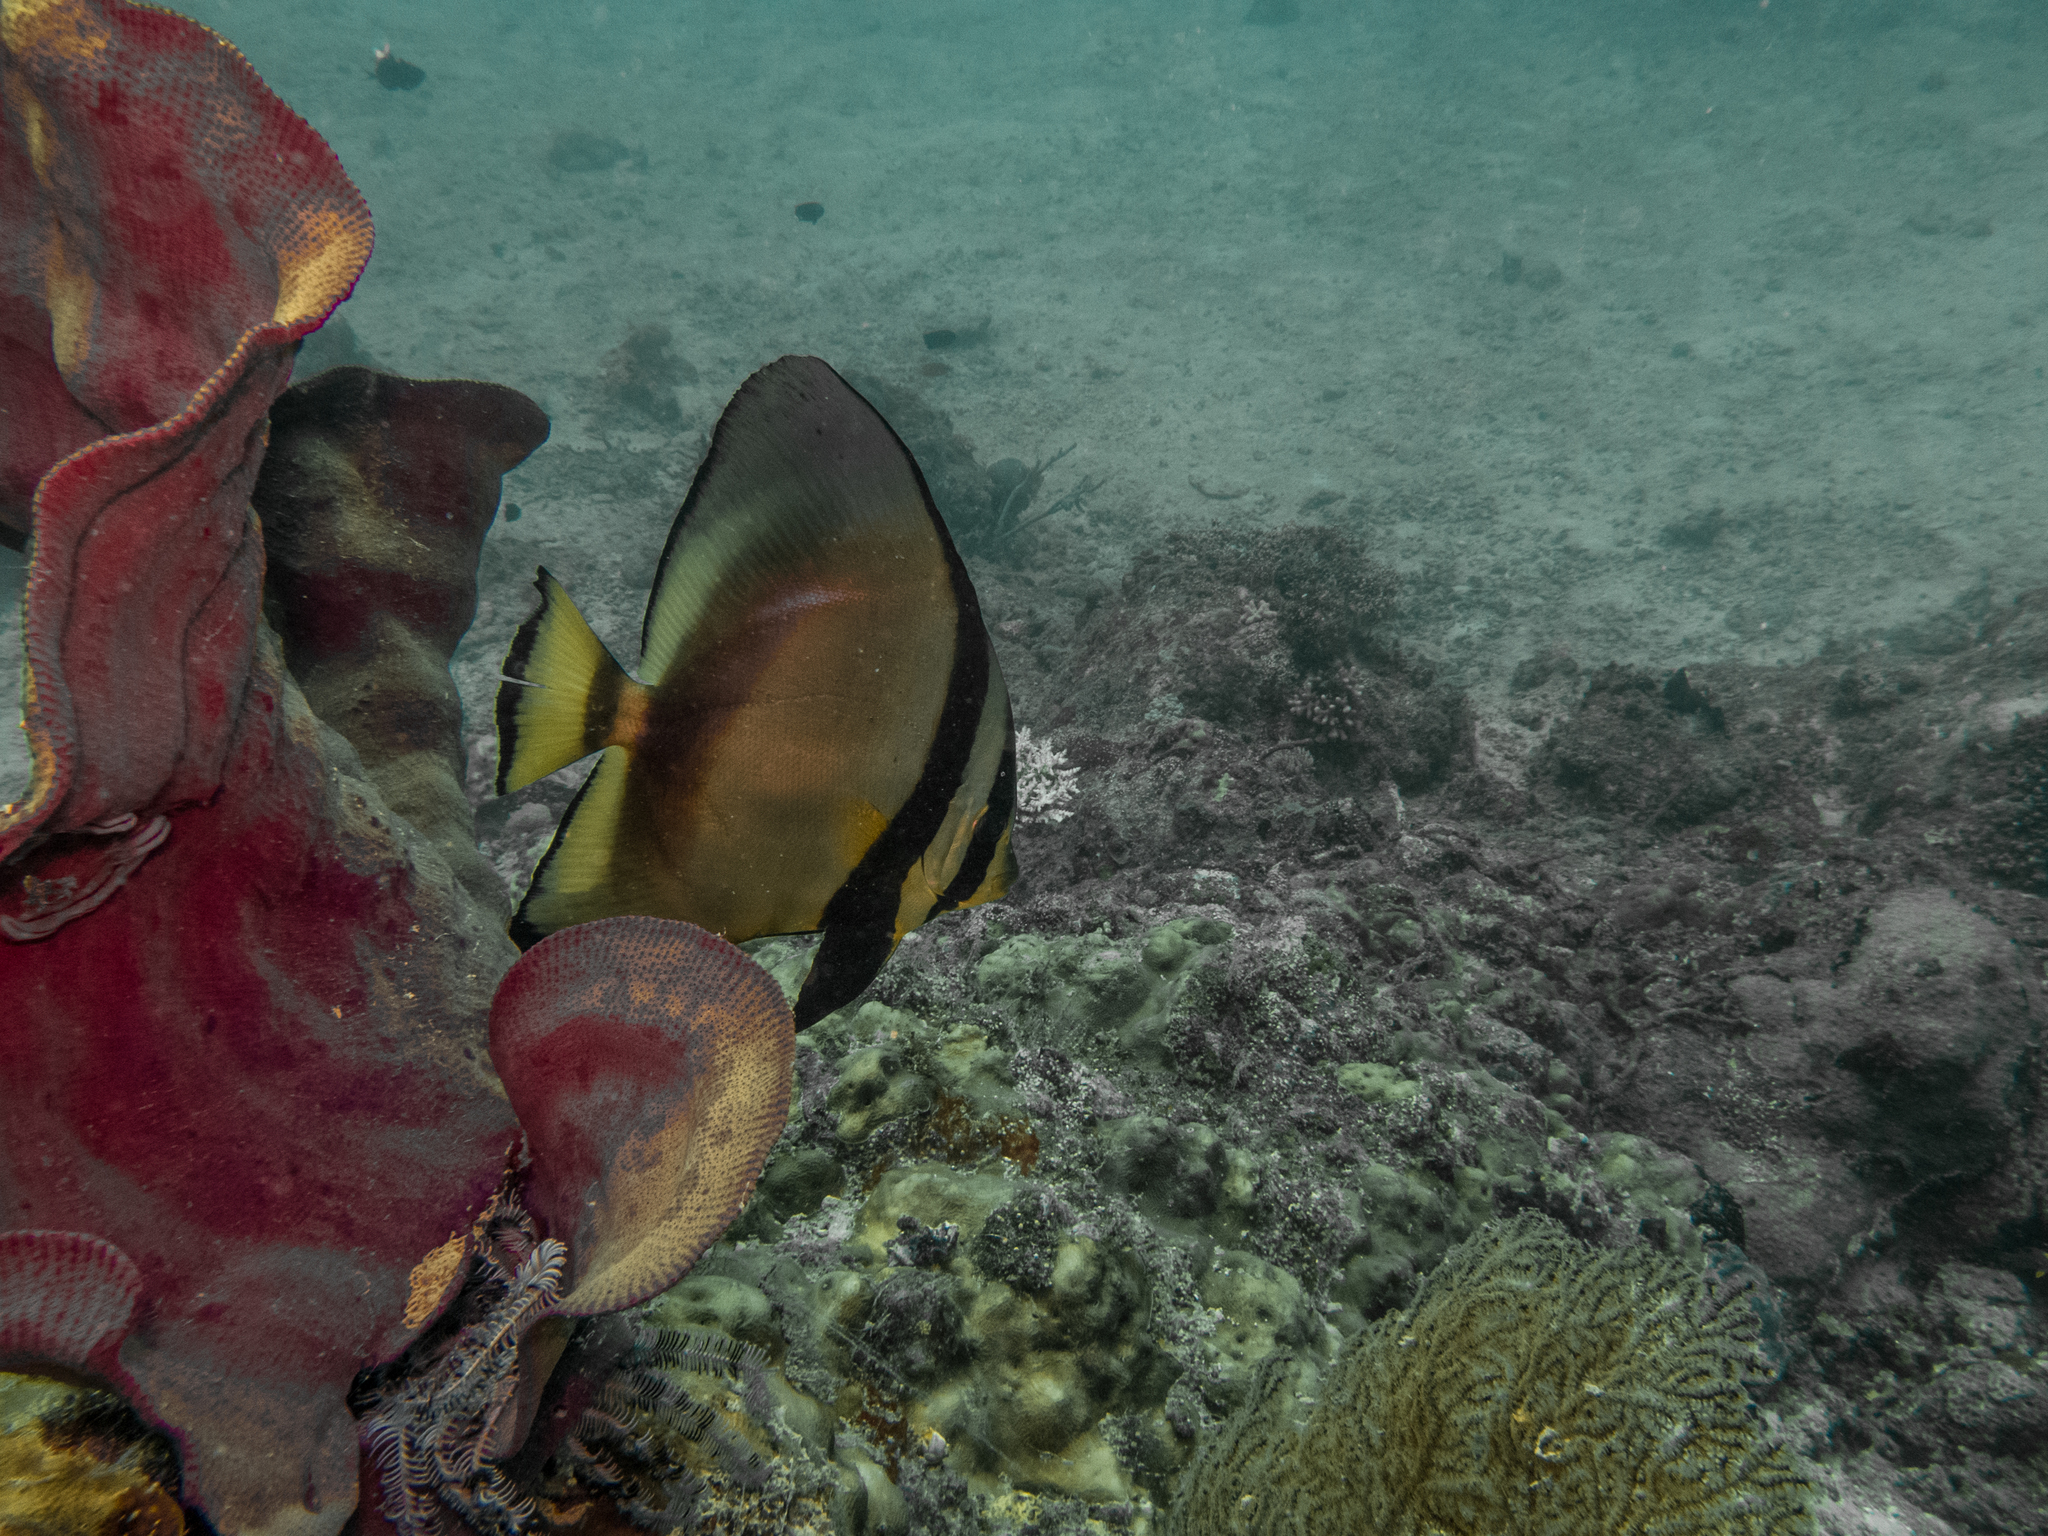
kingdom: Animalia
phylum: Chordata
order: Perciformes
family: Ephippidae
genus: Platax
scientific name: Platax pinnatus
